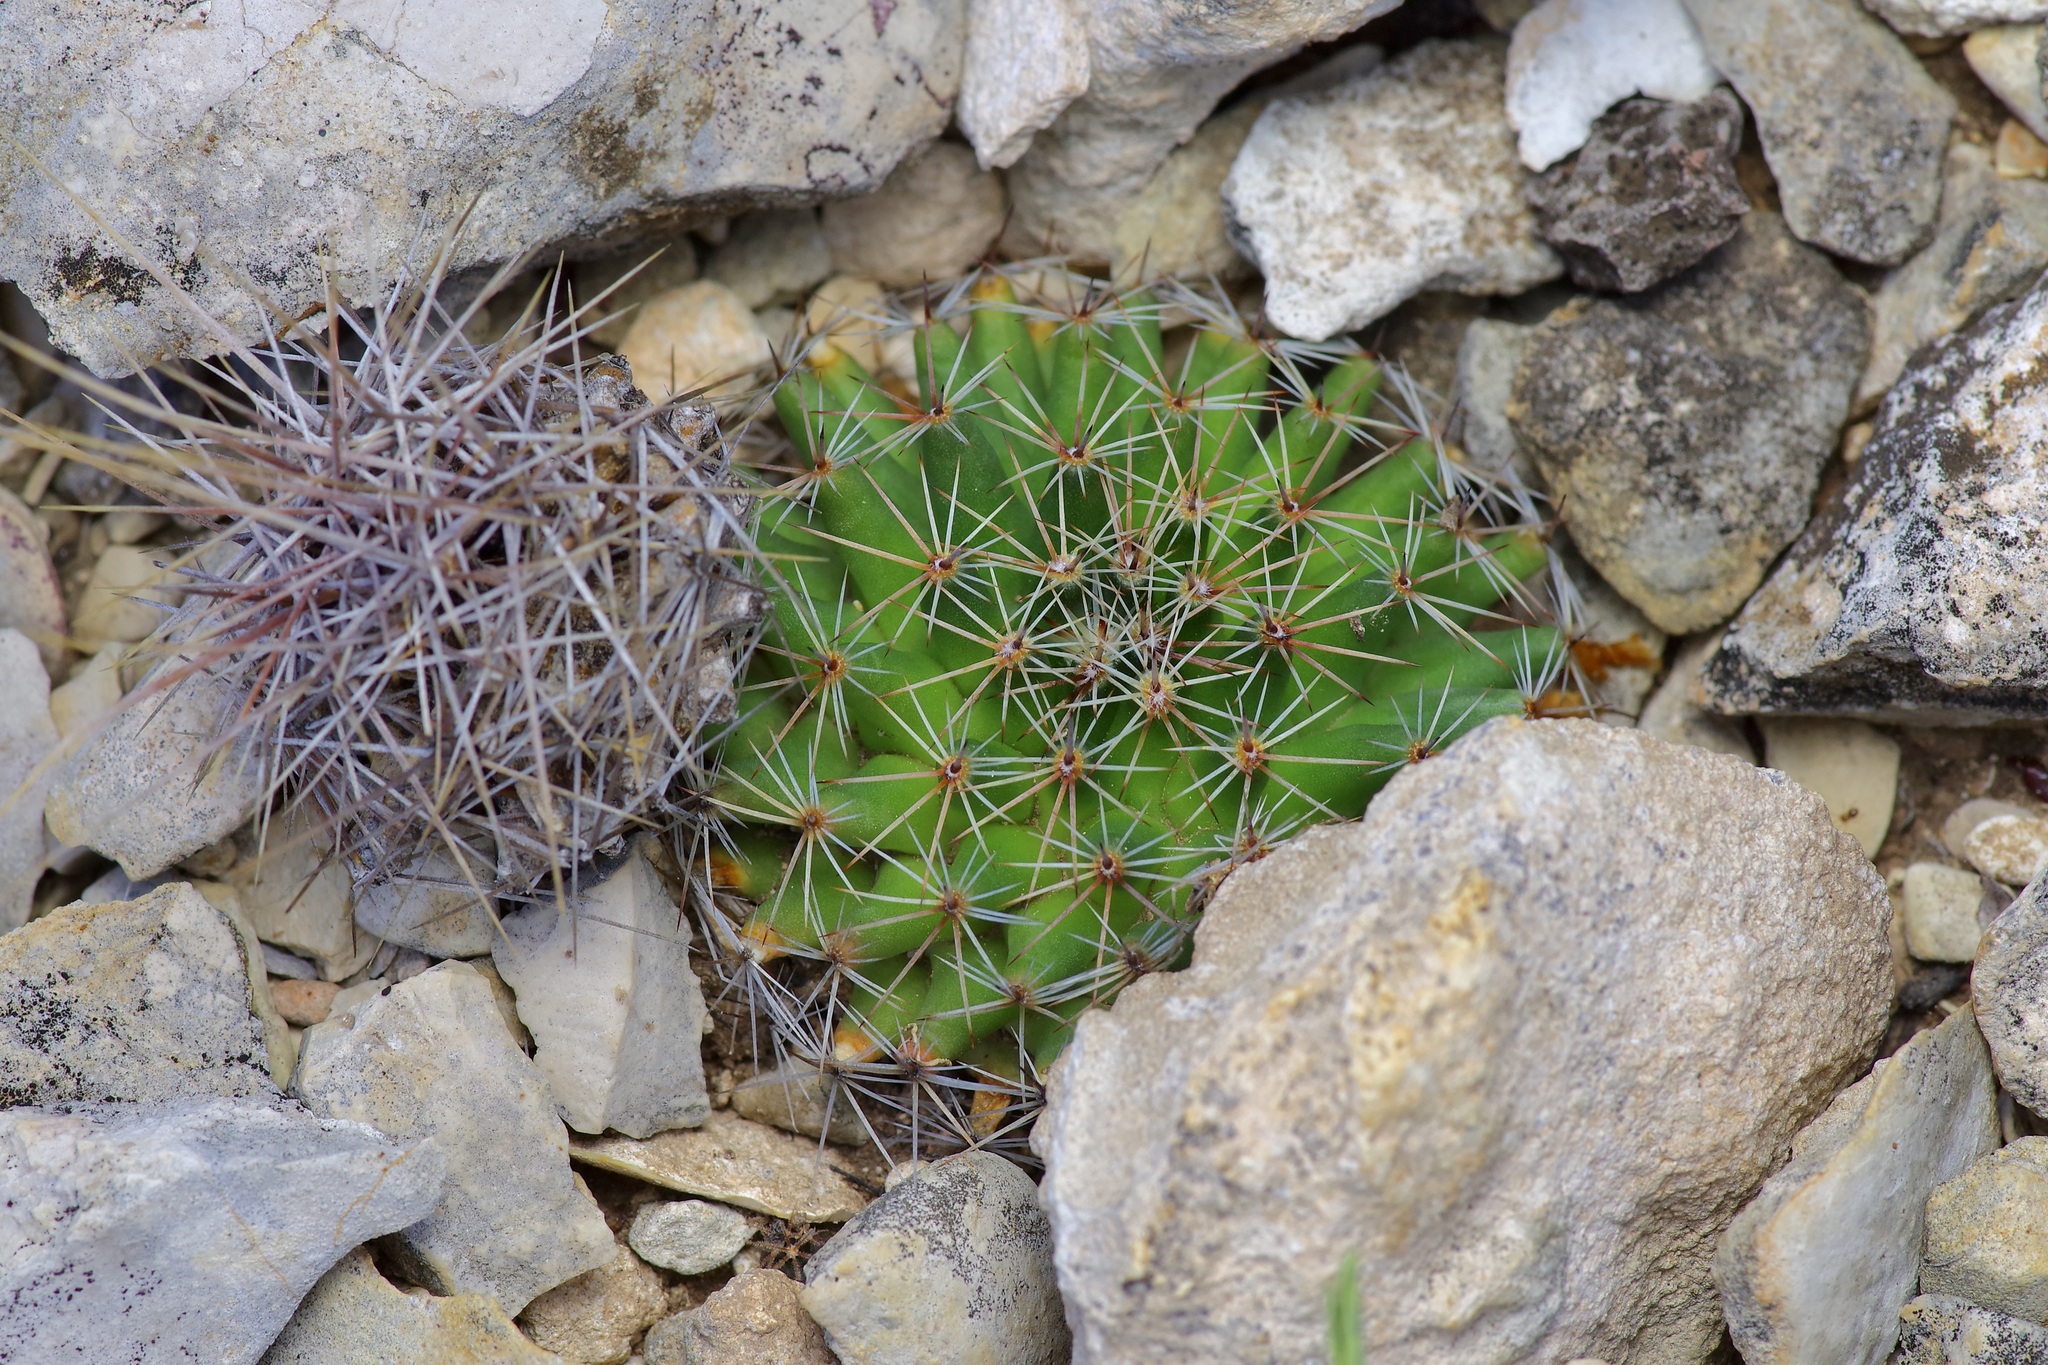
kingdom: Plantae
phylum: Tracheophyta
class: Magnoliopsida
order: Caryophyllales
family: Cactaceae
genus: Mammillaria
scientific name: Mammillaria heyderi
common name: Little nipple cactus
